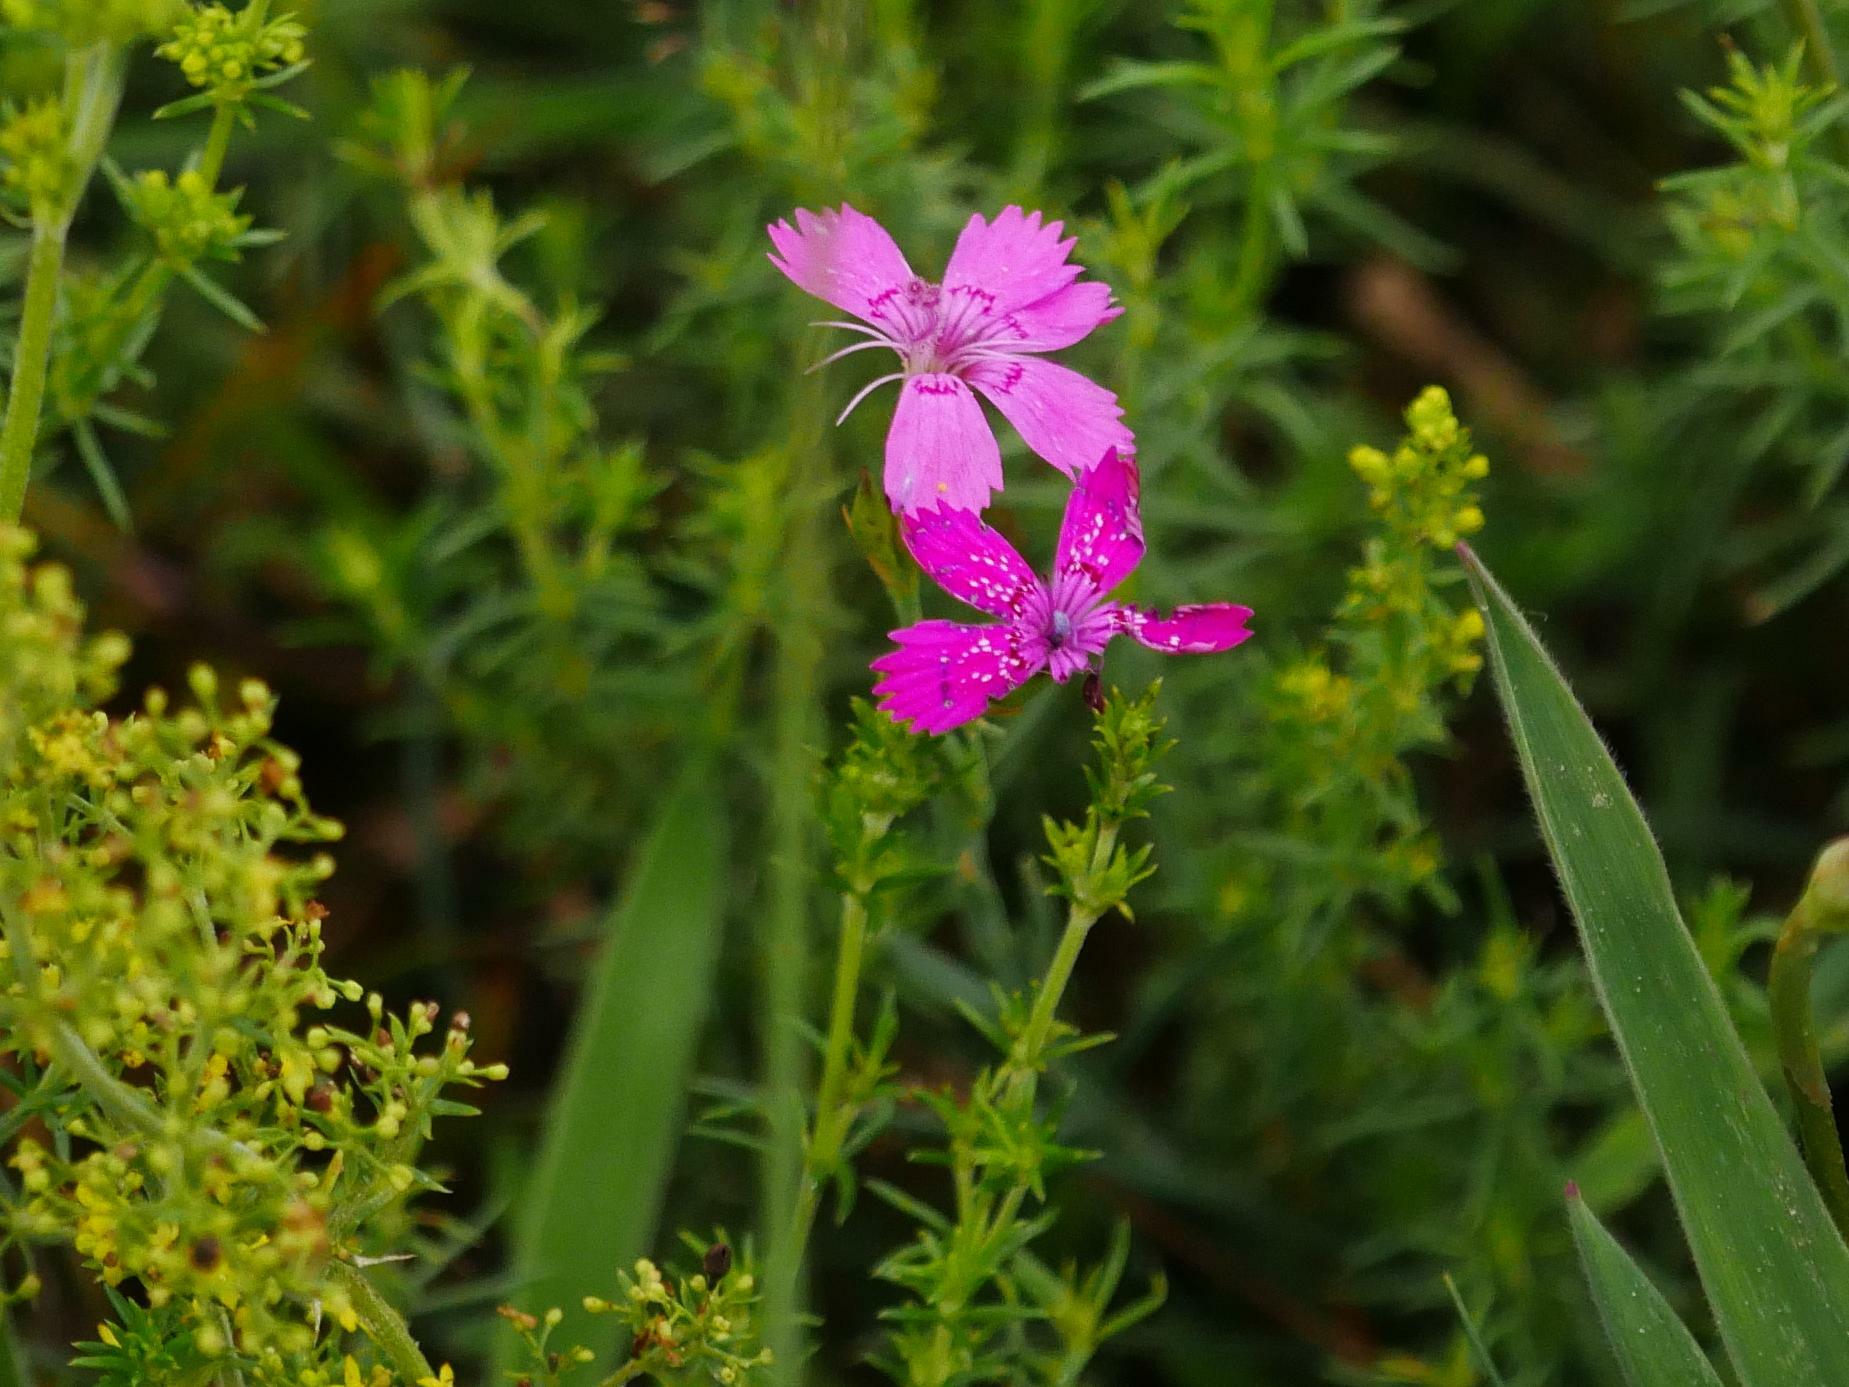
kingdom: Plantae
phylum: Tracheophyta
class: Magnoliopsida
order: Caryophyllales
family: Caryophyllaceae
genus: Dianthus
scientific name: Dianthus deltoides
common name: Maiden pink
